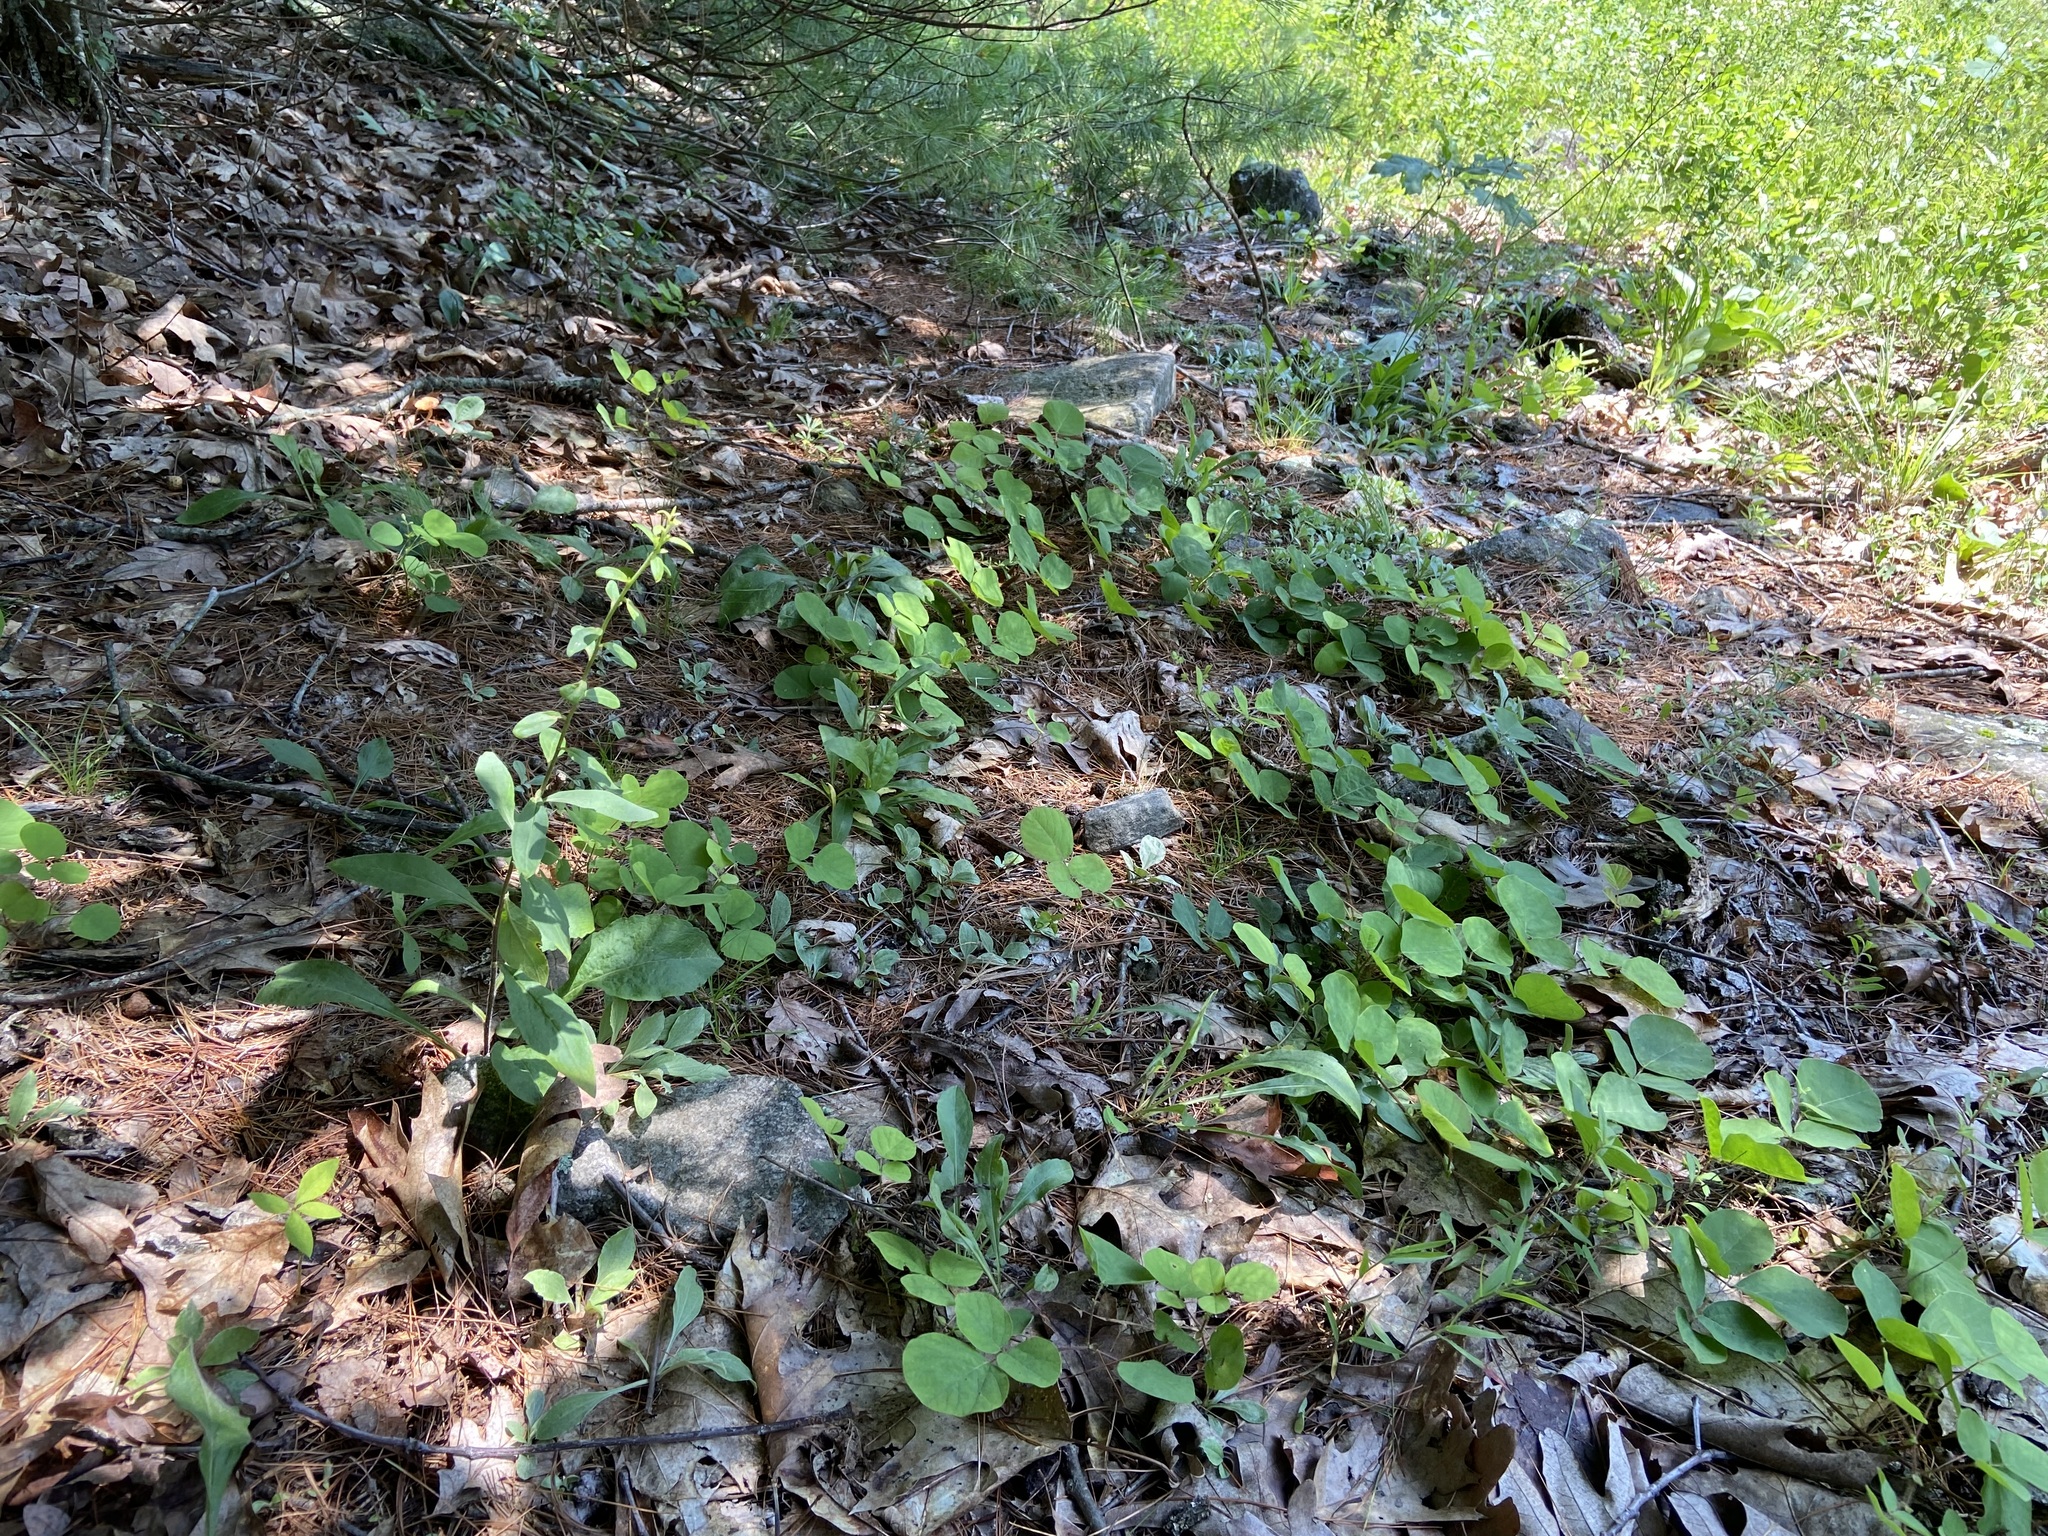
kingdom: Plantae
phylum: Tracheophyta
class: Magnoliopsida
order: Fabales
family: Fabaceae
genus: Desmodium
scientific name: Desmodium rotundifolium
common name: Dollarleaf
